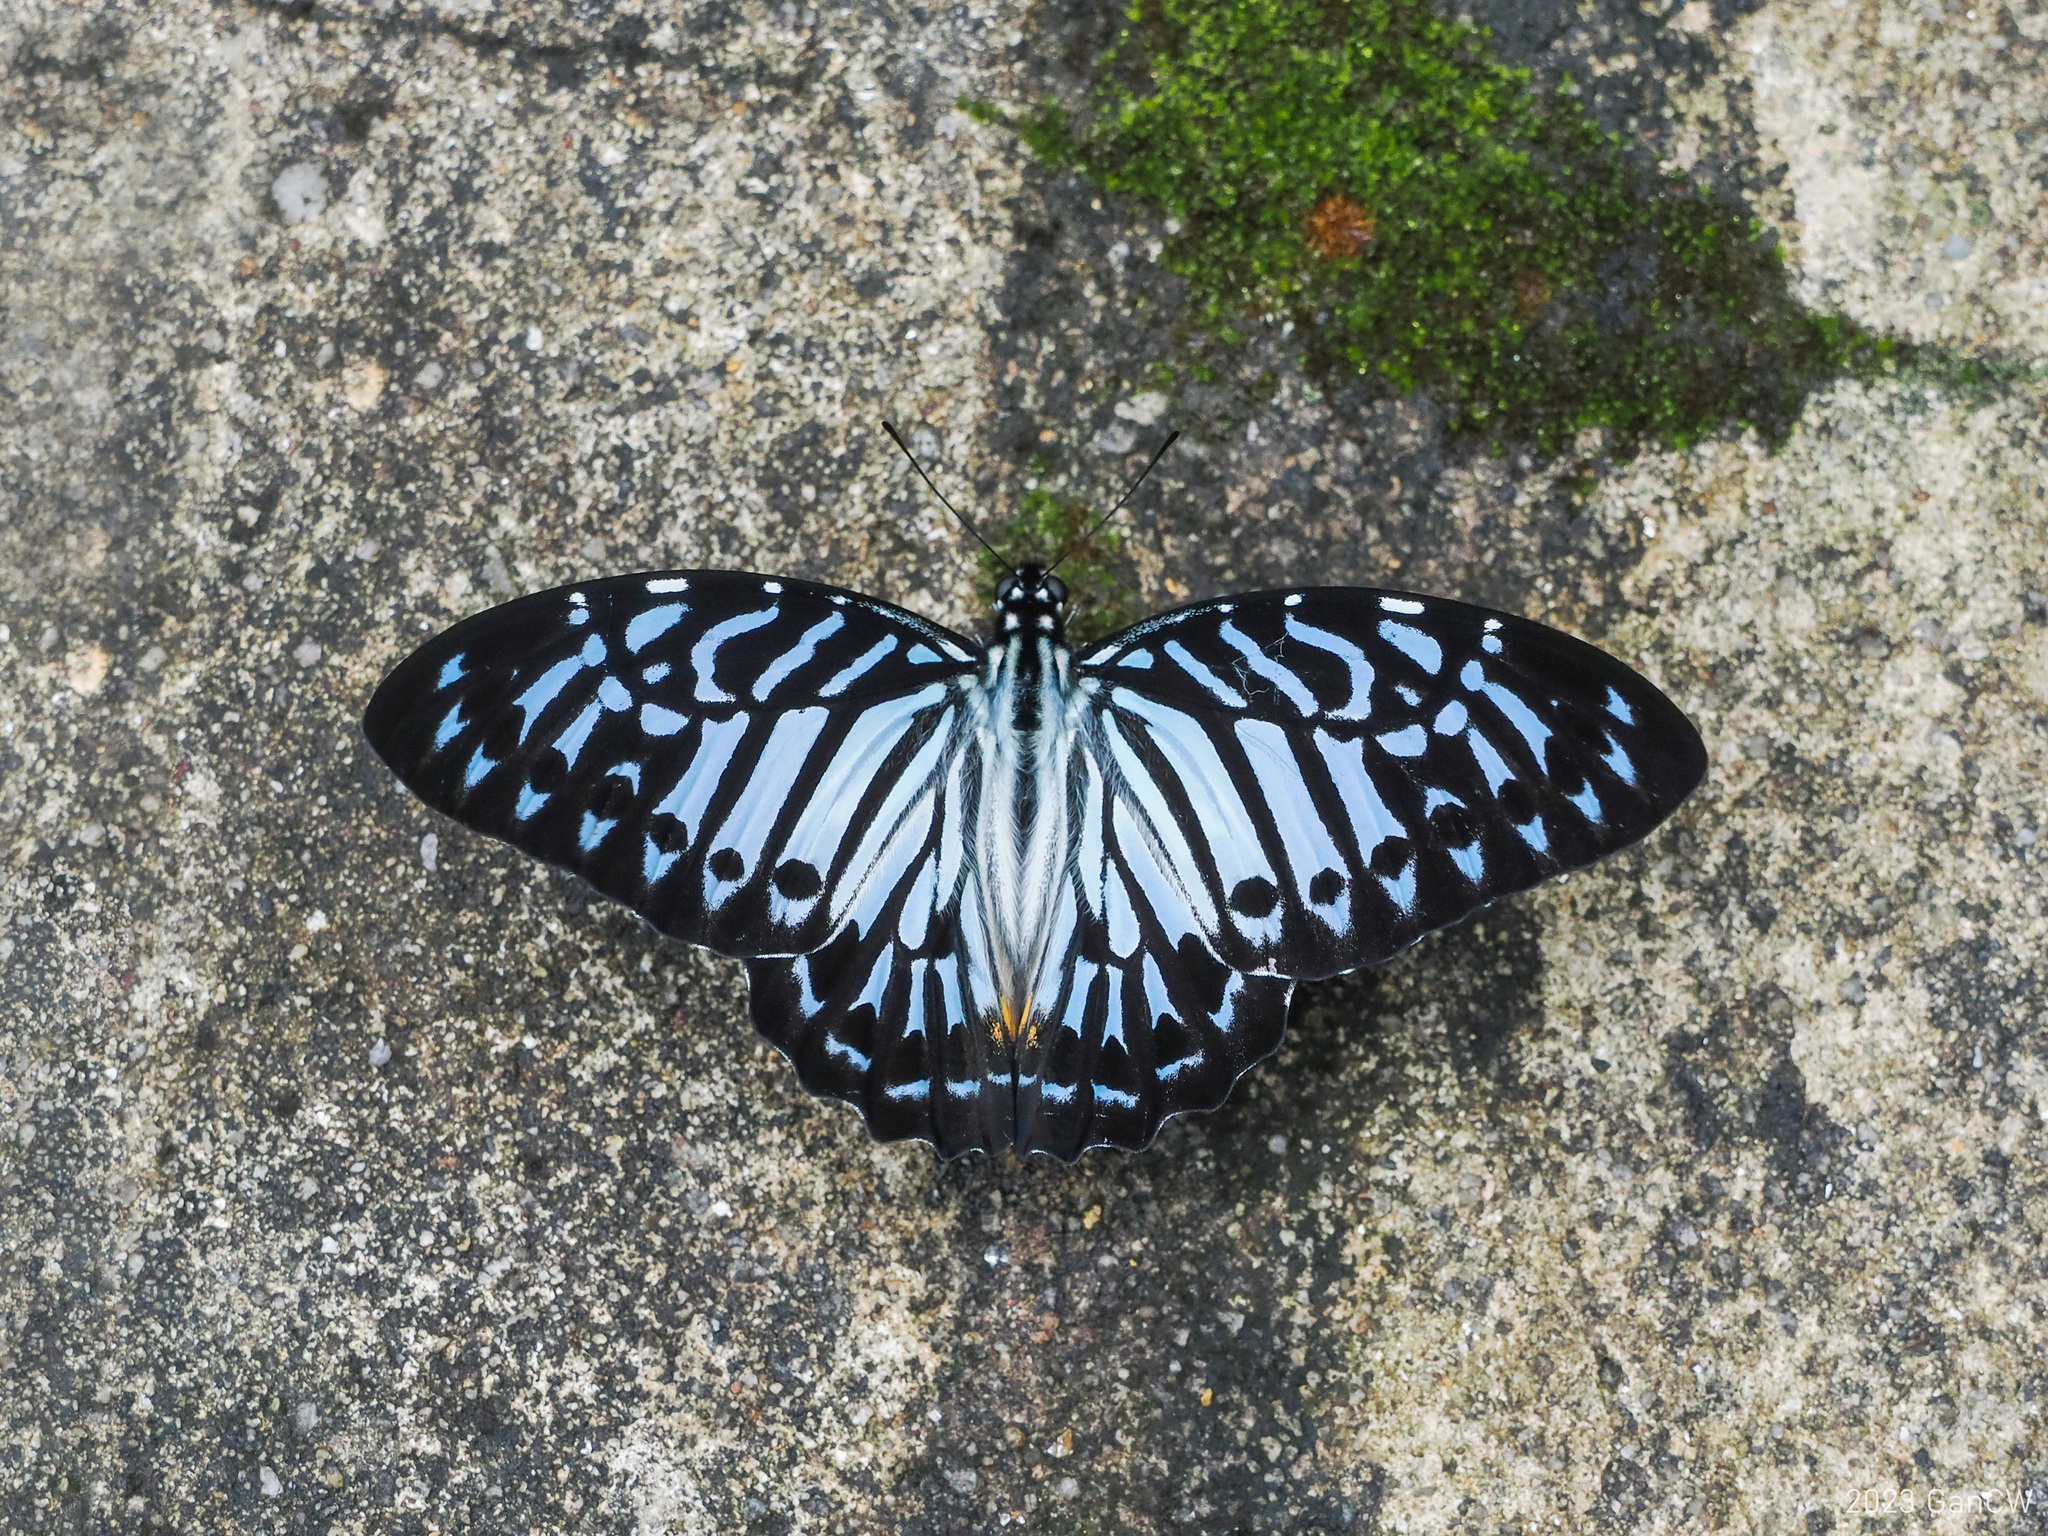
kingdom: Animalia
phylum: Arthropoda
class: Insecta
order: Lepidoptera
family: Papilionidae
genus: Graphium
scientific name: Graphium delesserti
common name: Malayan zebra
